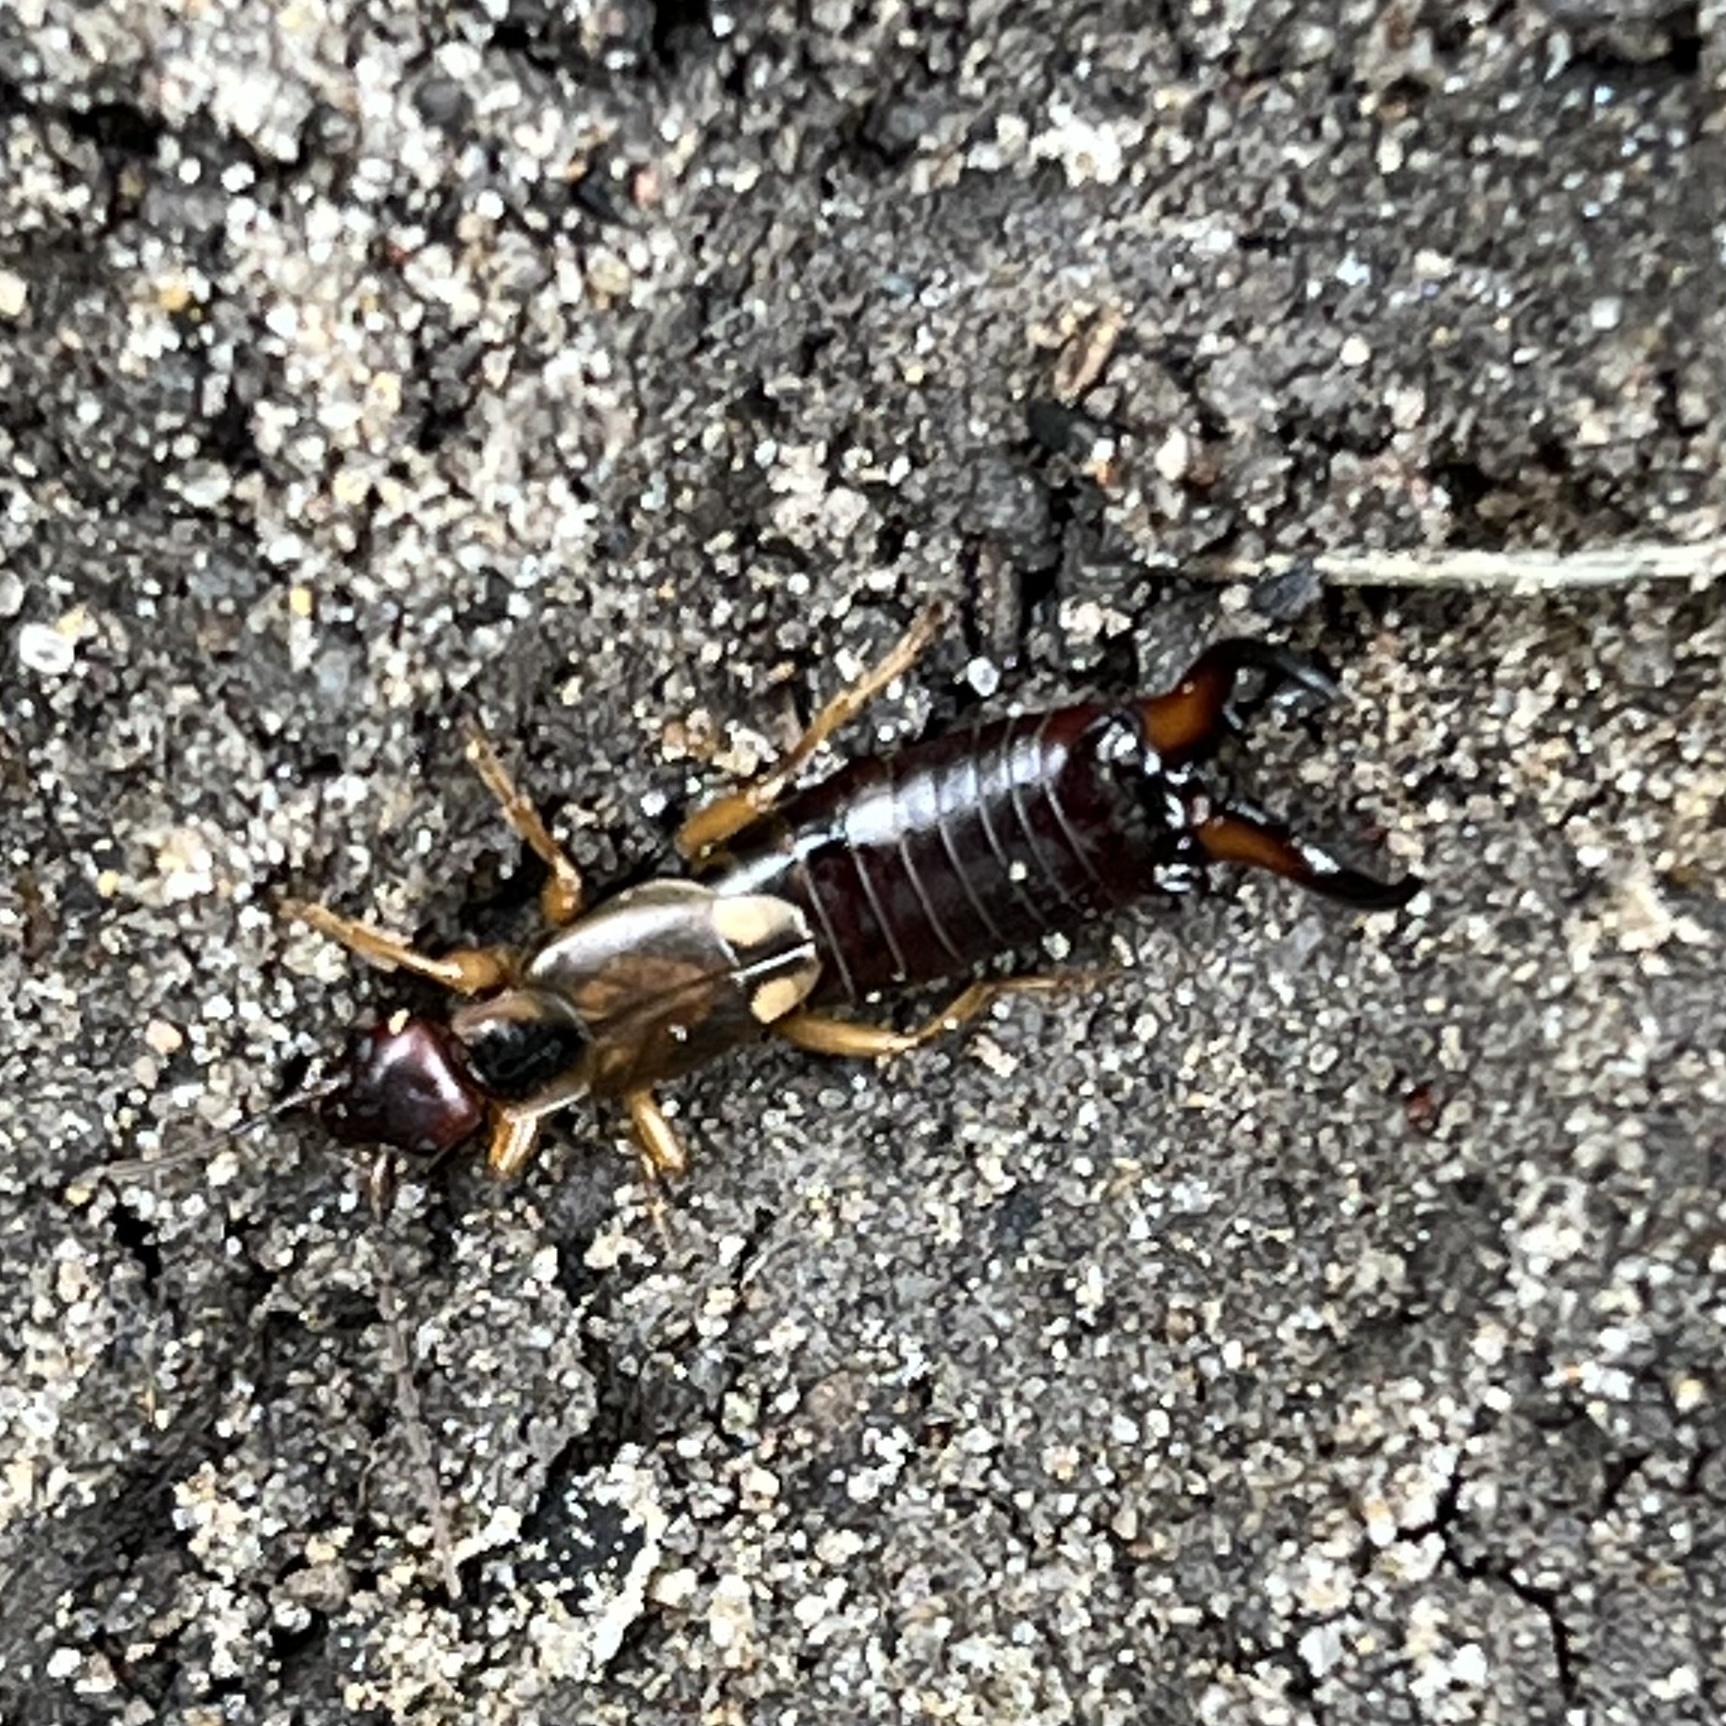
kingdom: Animalia
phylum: Arthropoda
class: Insecta
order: Dermaptera
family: Forficulidae
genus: Forficula
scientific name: Forficula
